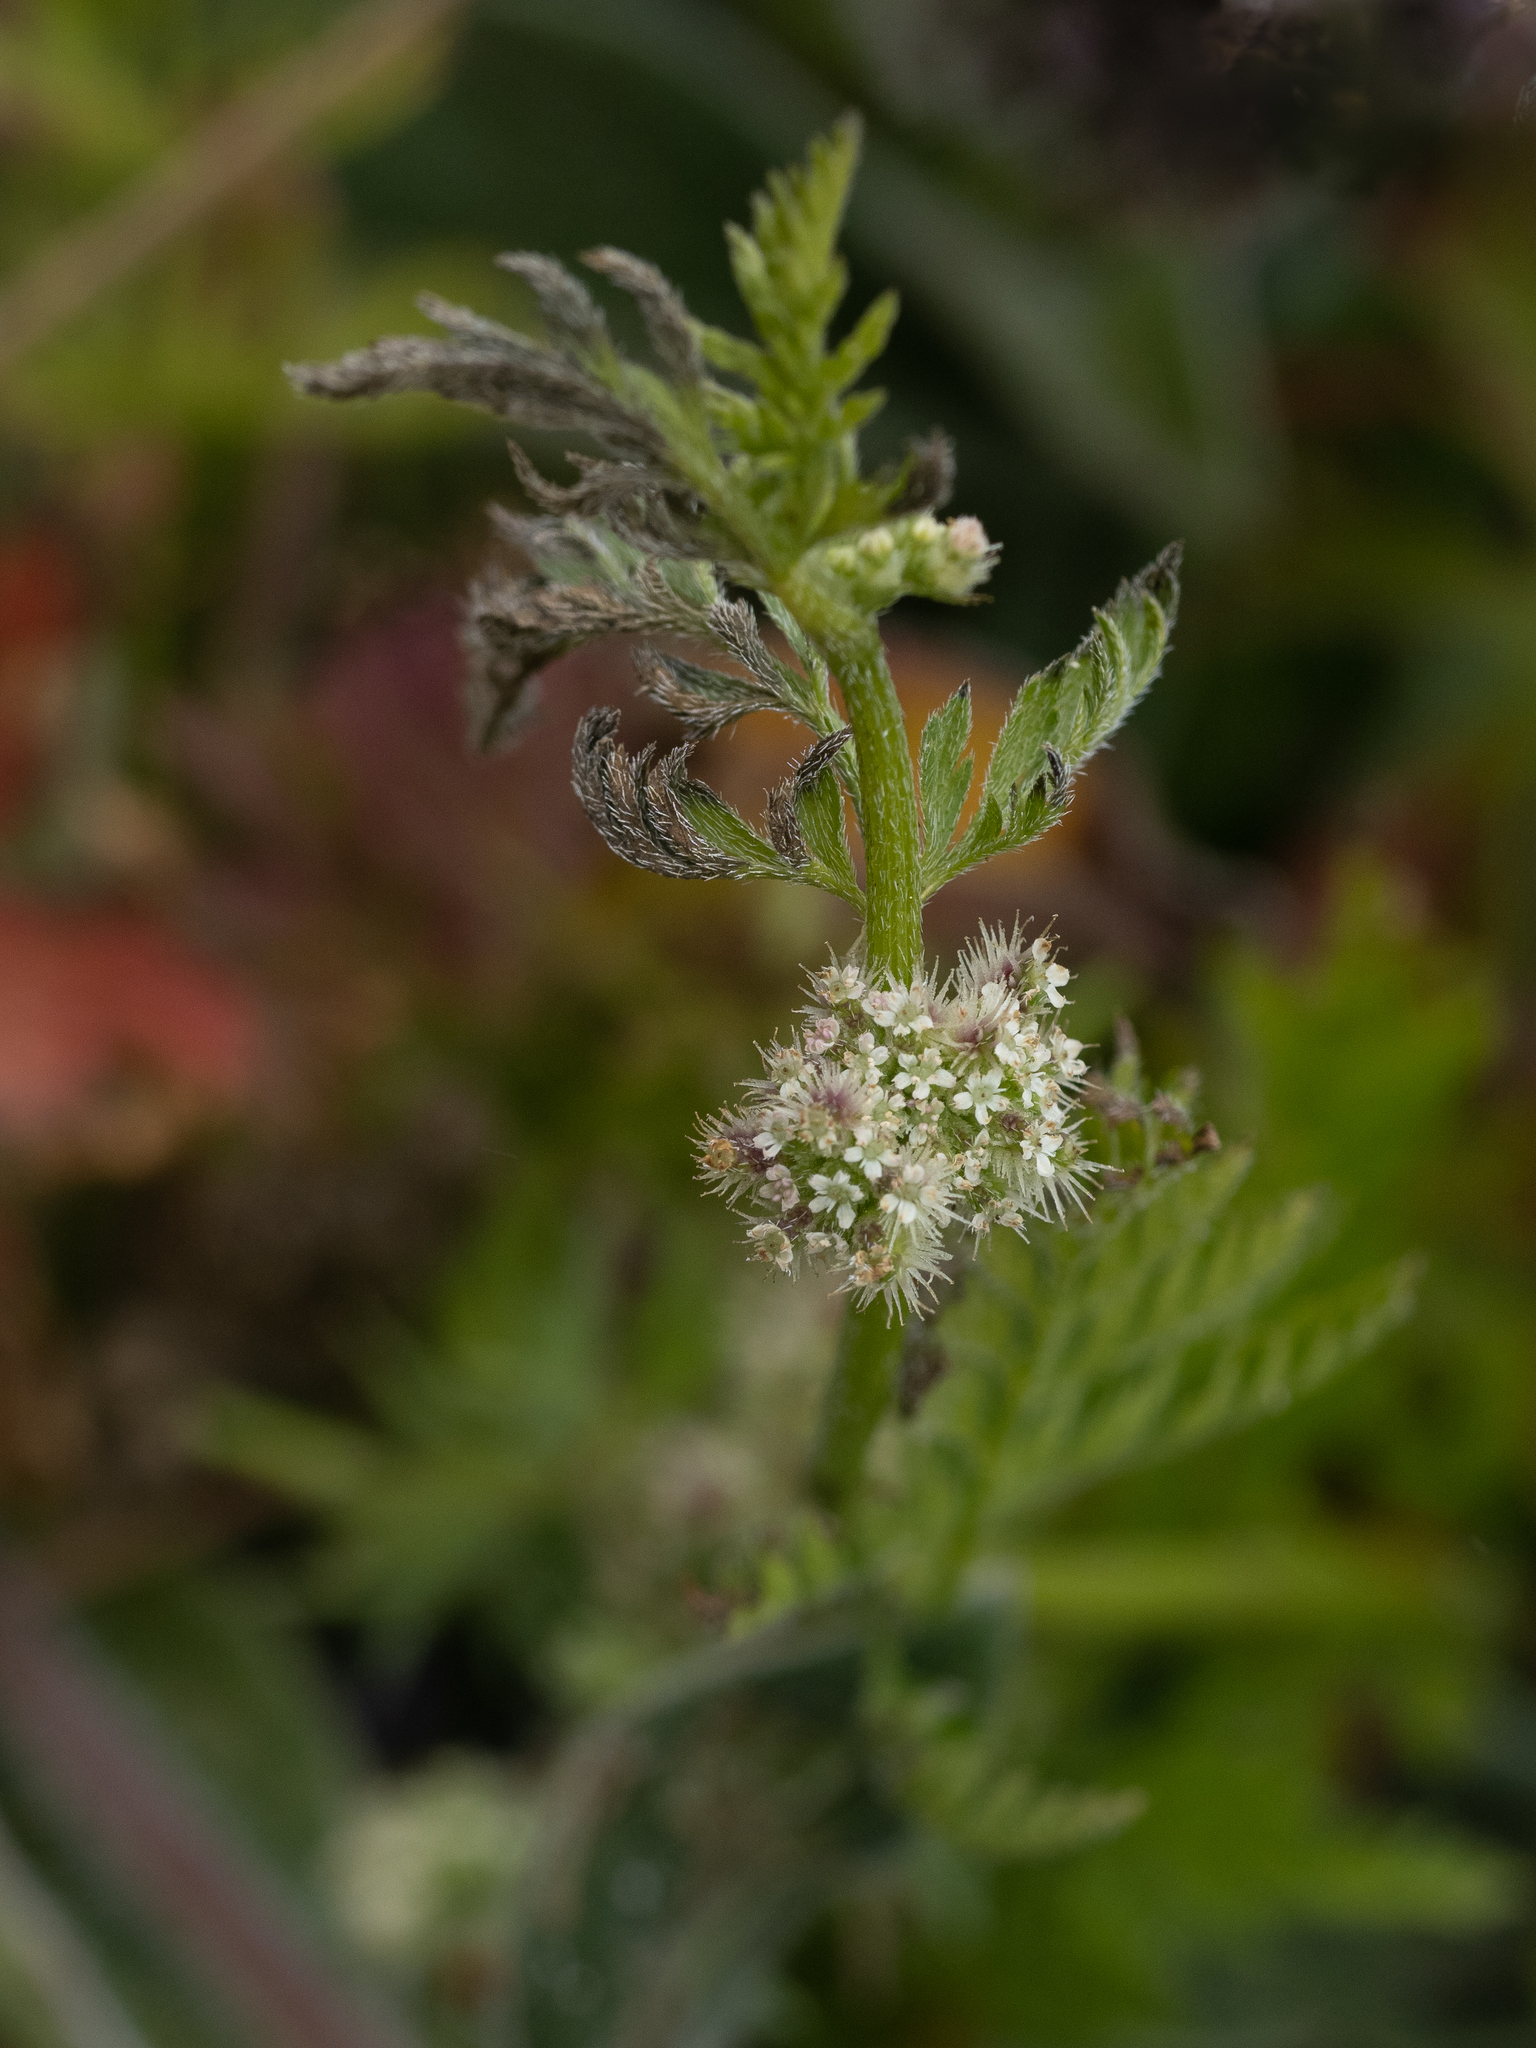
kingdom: Plantae
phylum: Tracheophyta
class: Magnoliopsida
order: Apiales
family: Apiaceae
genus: Torilis
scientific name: Torilis nodosa
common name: Knotted hedge-parsley
